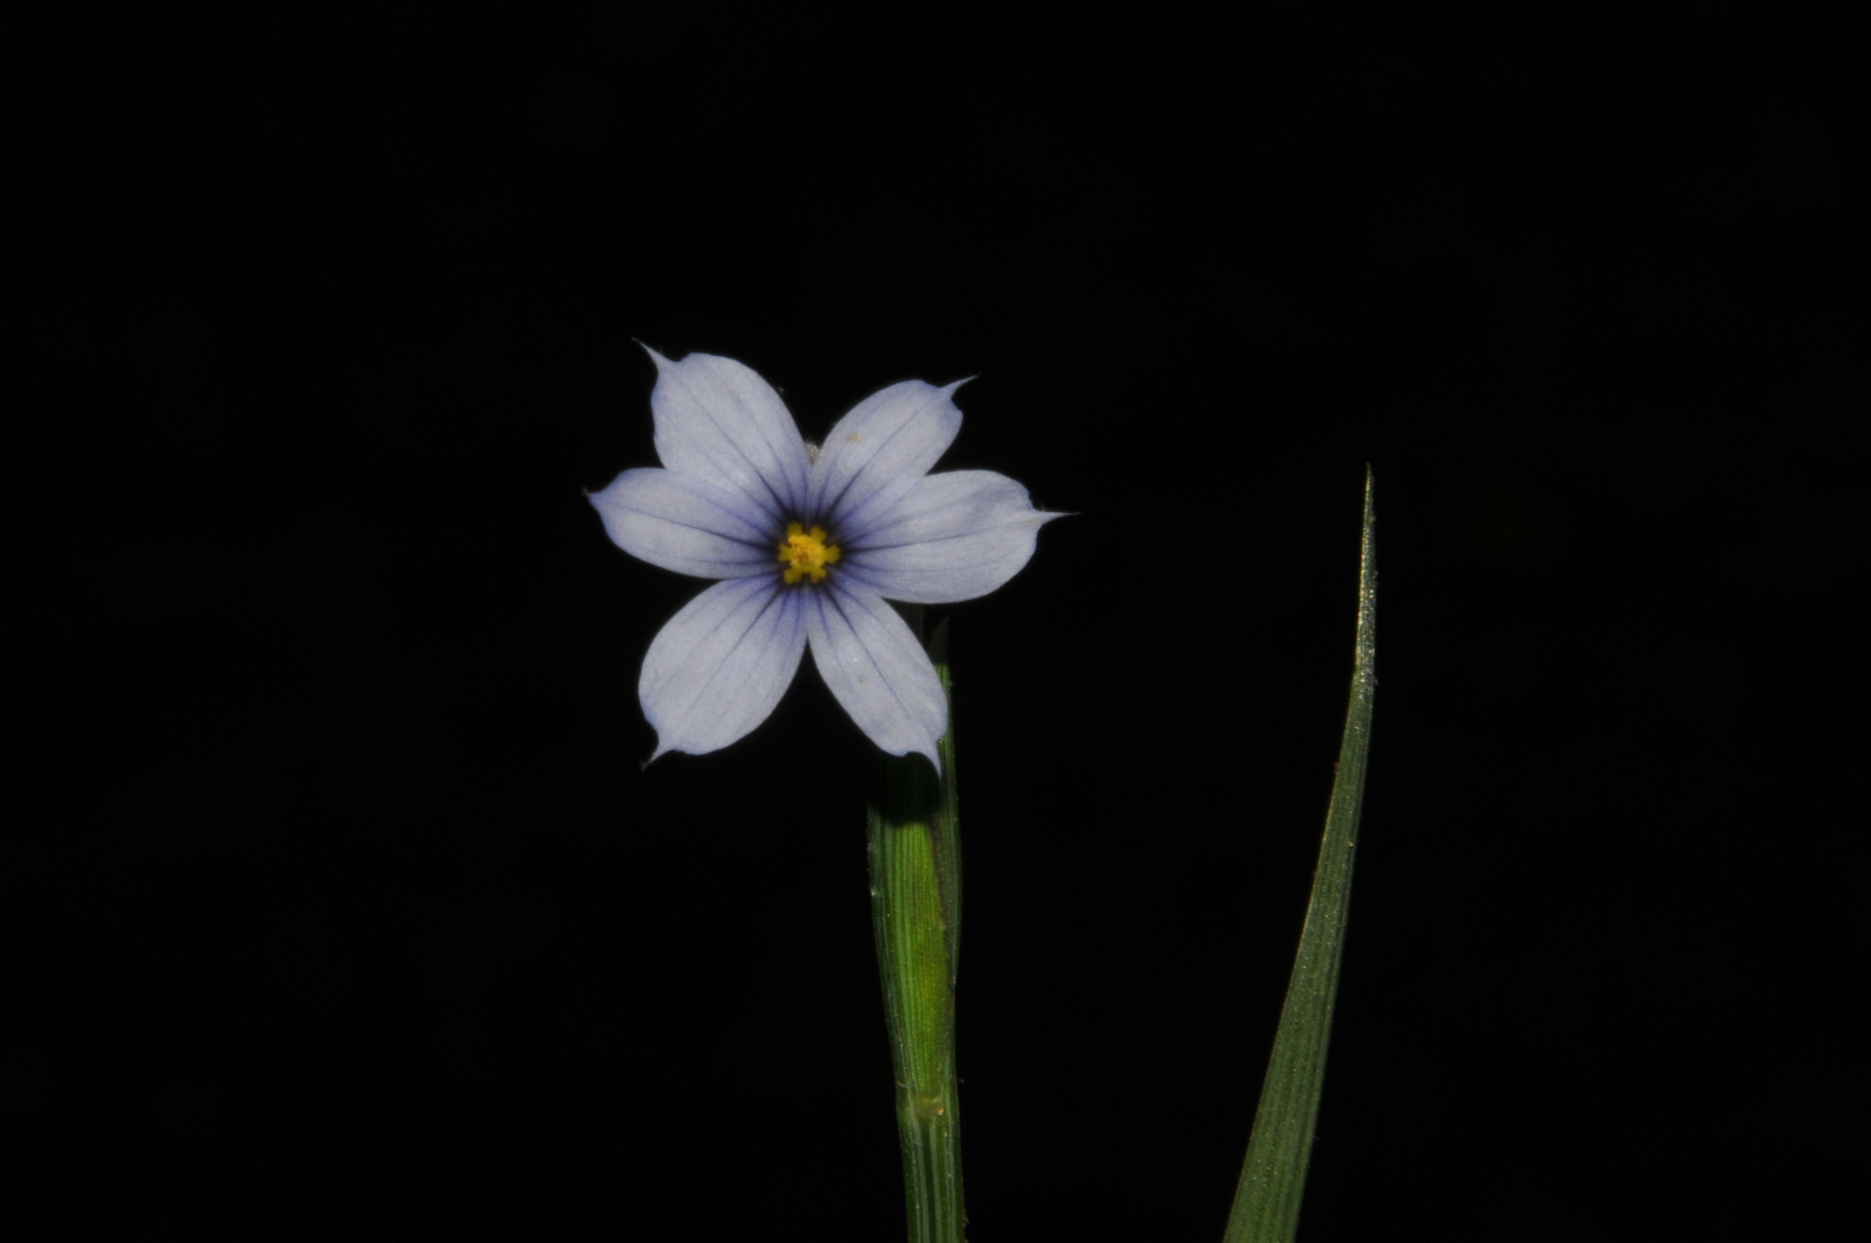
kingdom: Plantae
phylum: Tracheophyta
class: Liliopsida
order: Asparagales
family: Iridaceae
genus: Sisyrinchium
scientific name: Sisyrinchium angustifolium
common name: Narrow-leaf blue-eyed-grass
